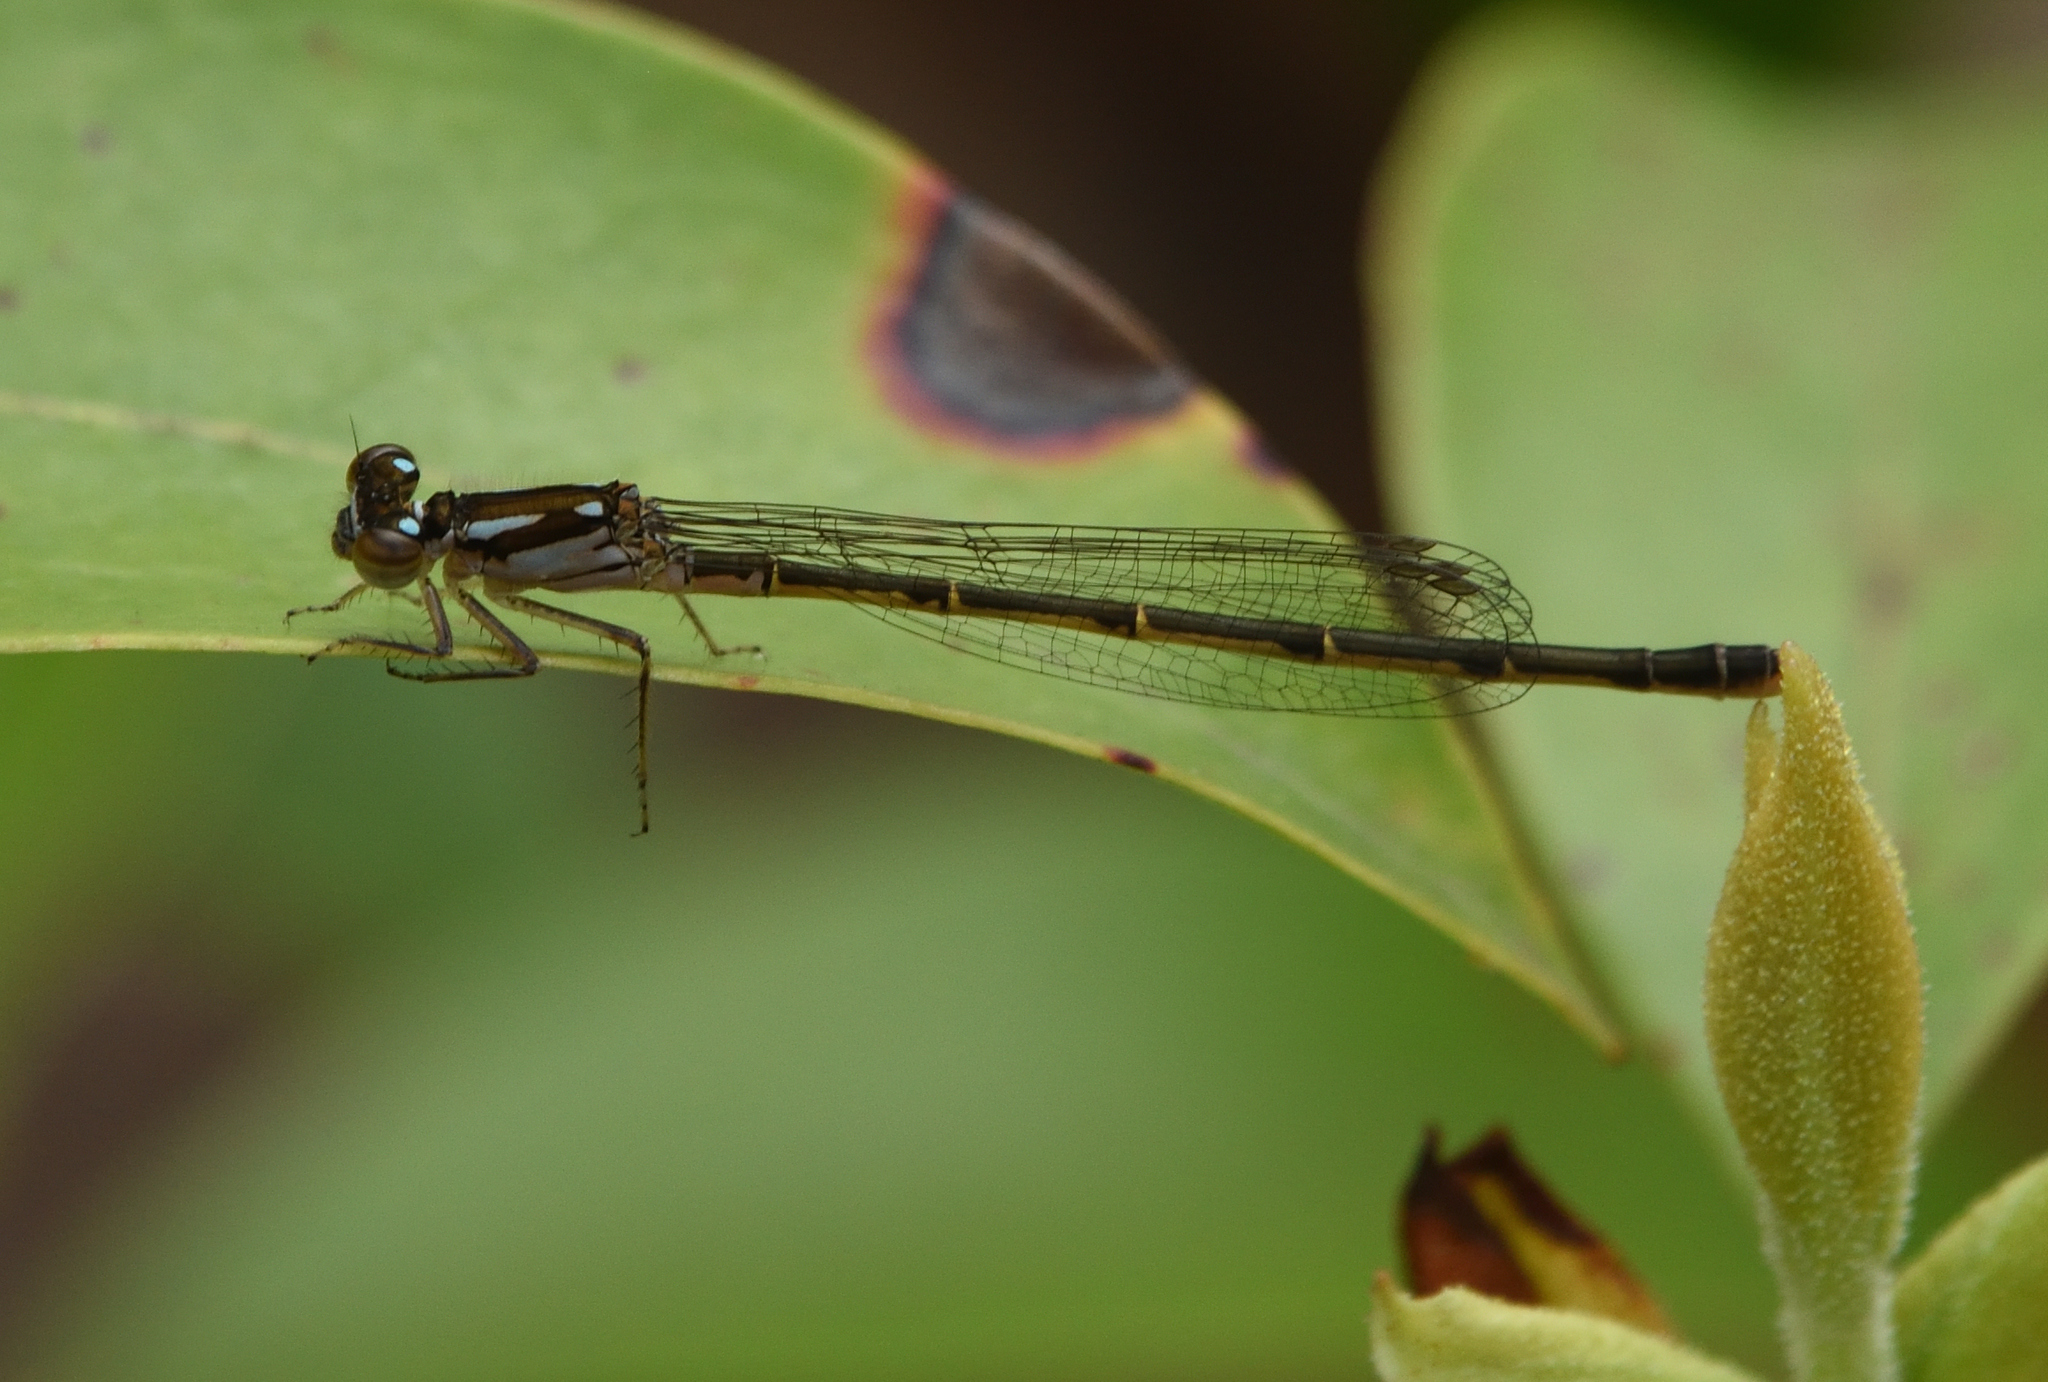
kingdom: Animalia
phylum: Arthropoda
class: Insecta
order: Odonata
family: Coenagrionidae
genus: Ischnura
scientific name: Ischnura posita
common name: Fragile forktail
